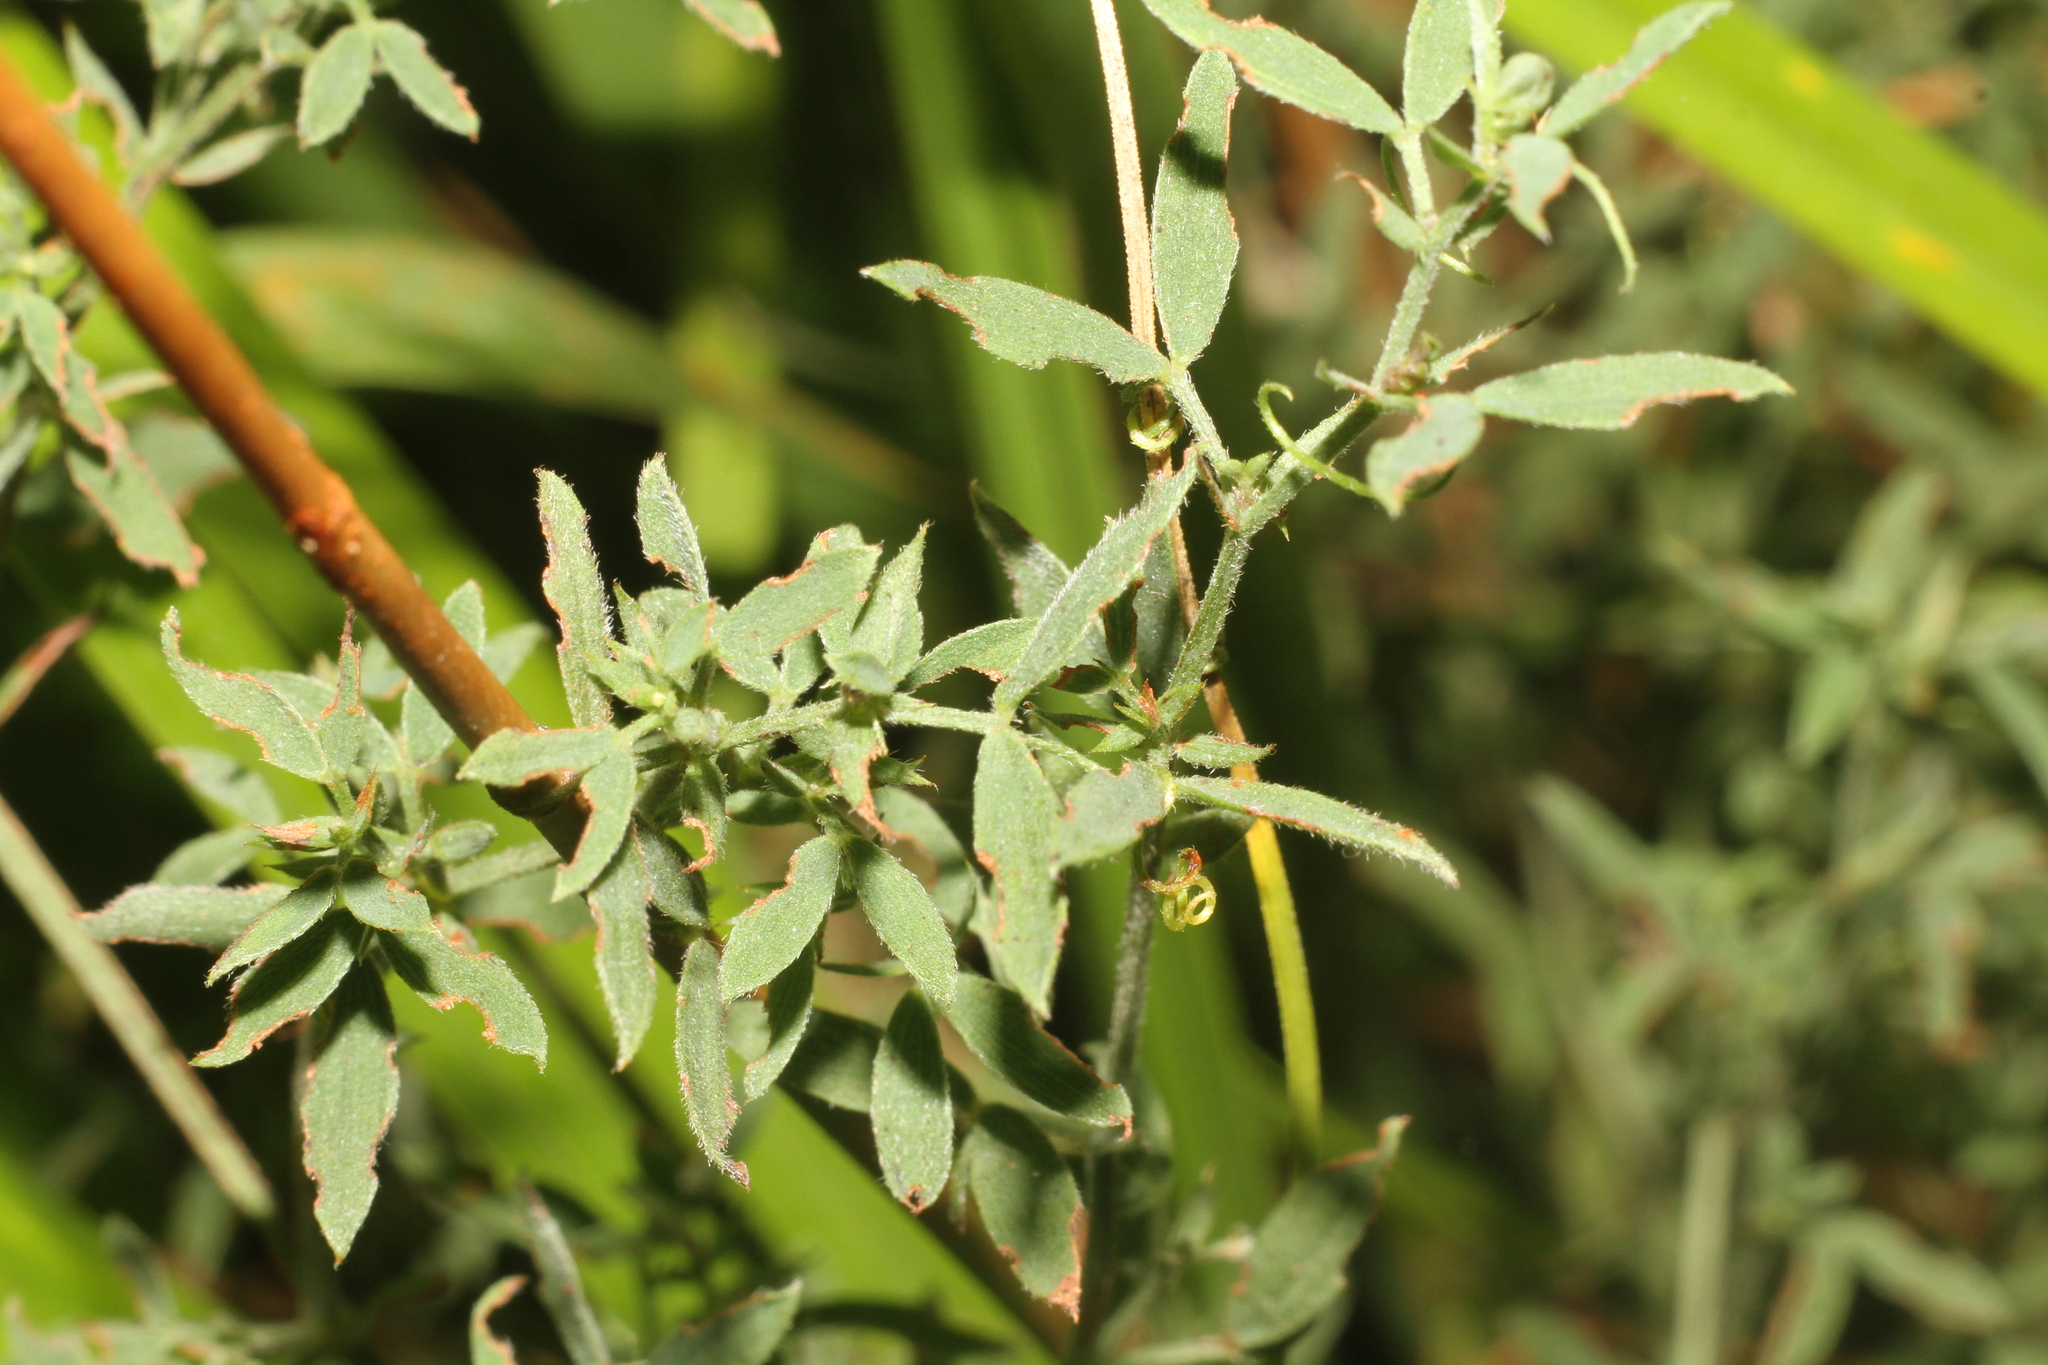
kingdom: Plantae
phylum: Tracheophyta
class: Magnoliopsida
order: Fabales
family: Fabaceae
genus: Lathyrus
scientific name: Lathyrus pratensis
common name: Meadow vetchling
